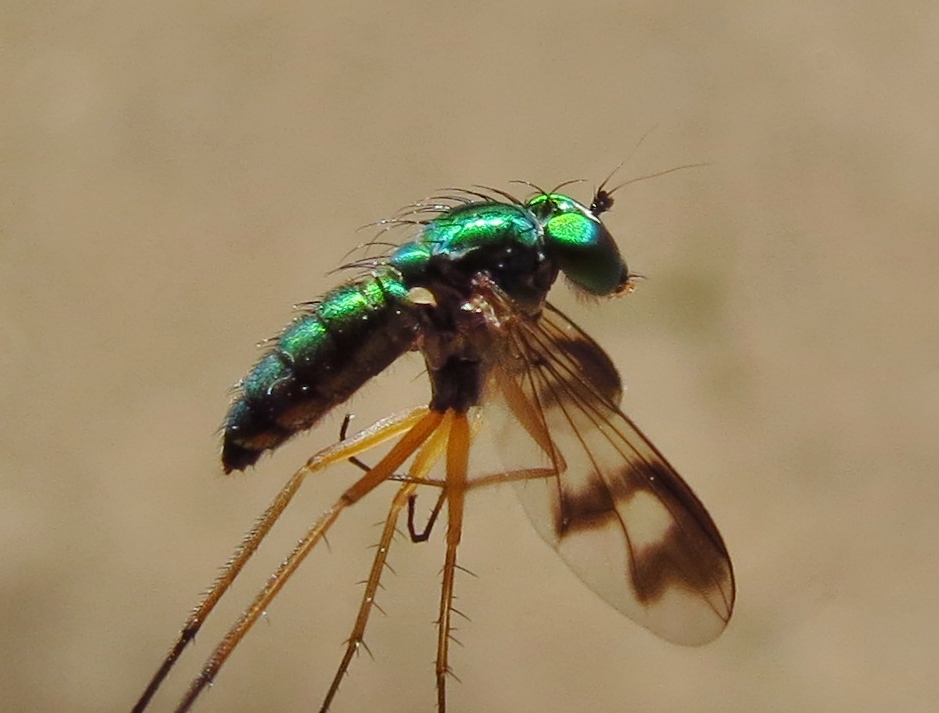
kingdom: Animalia
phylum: Arthropoda
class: Insecta
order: Diptera
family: Dolichopodidae
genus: Condylostylus
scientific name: Condylostylus
